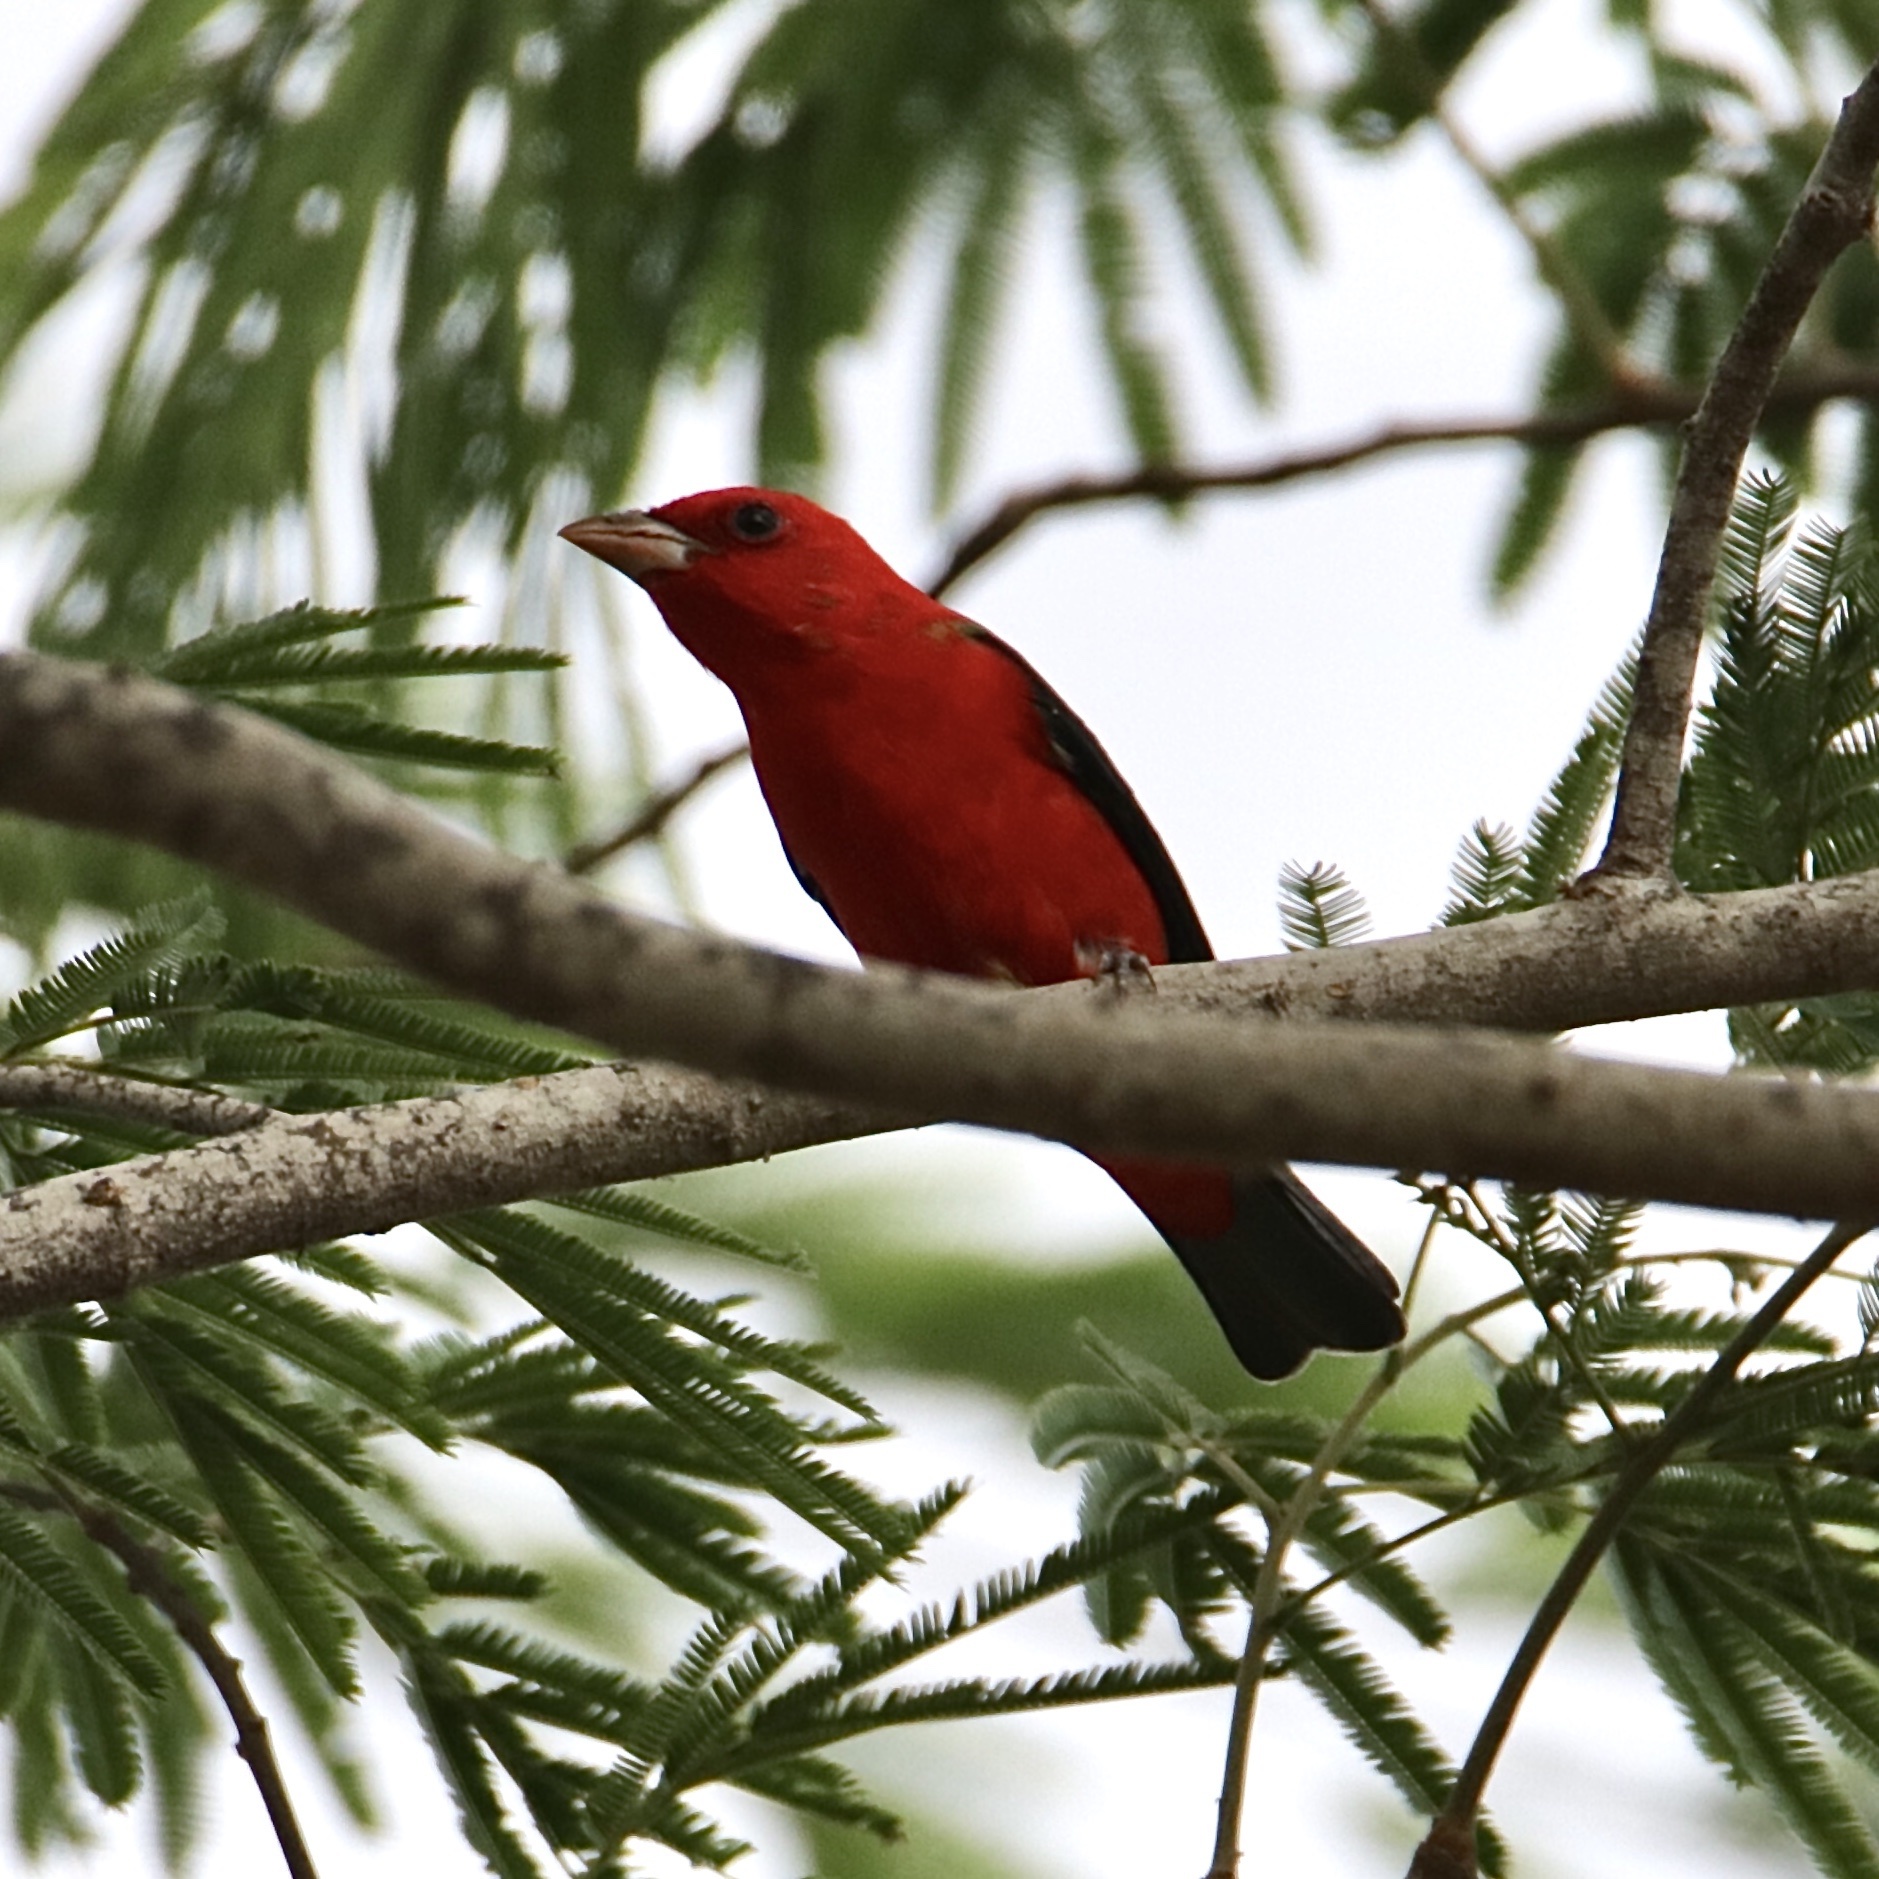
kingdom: Animalia
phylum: Chordata
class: Aves
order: Passeriformes
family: Cardinalidae
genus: Piranga
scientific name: Piranga olivacea
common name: Scarlet tanager
